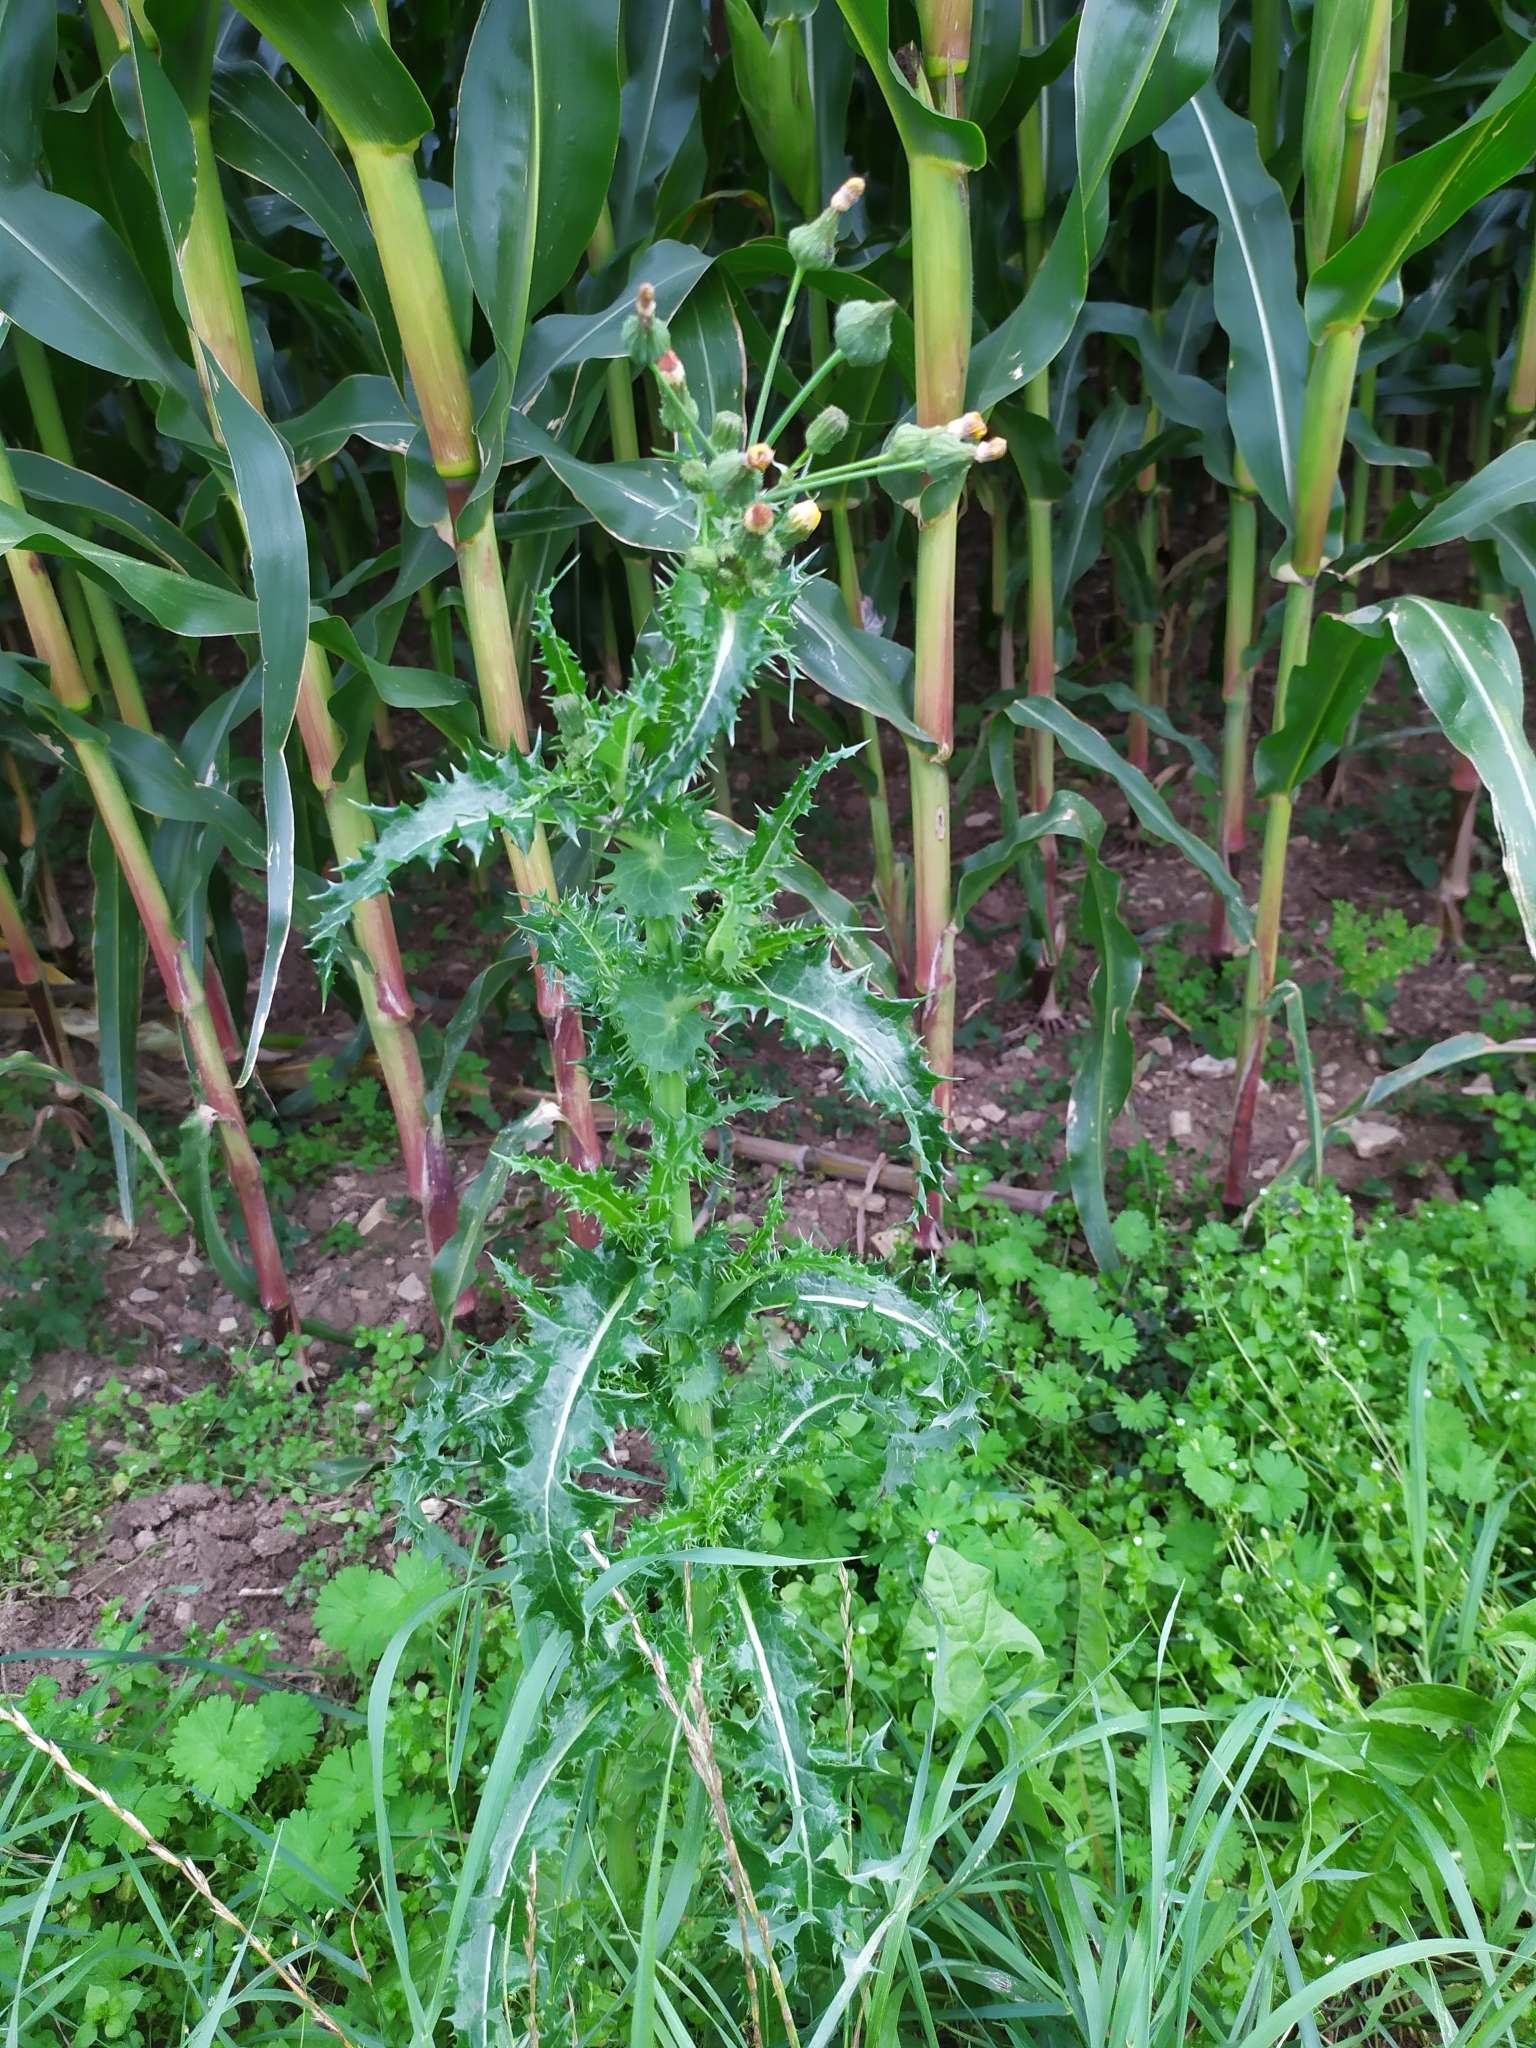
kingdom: Plantae
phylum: Tracheophyta
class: Magnoliopsida
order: Asterales
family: Asteraceae
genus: Sonchus
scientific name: Sonchus asper
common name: Prickly sow-thistle
